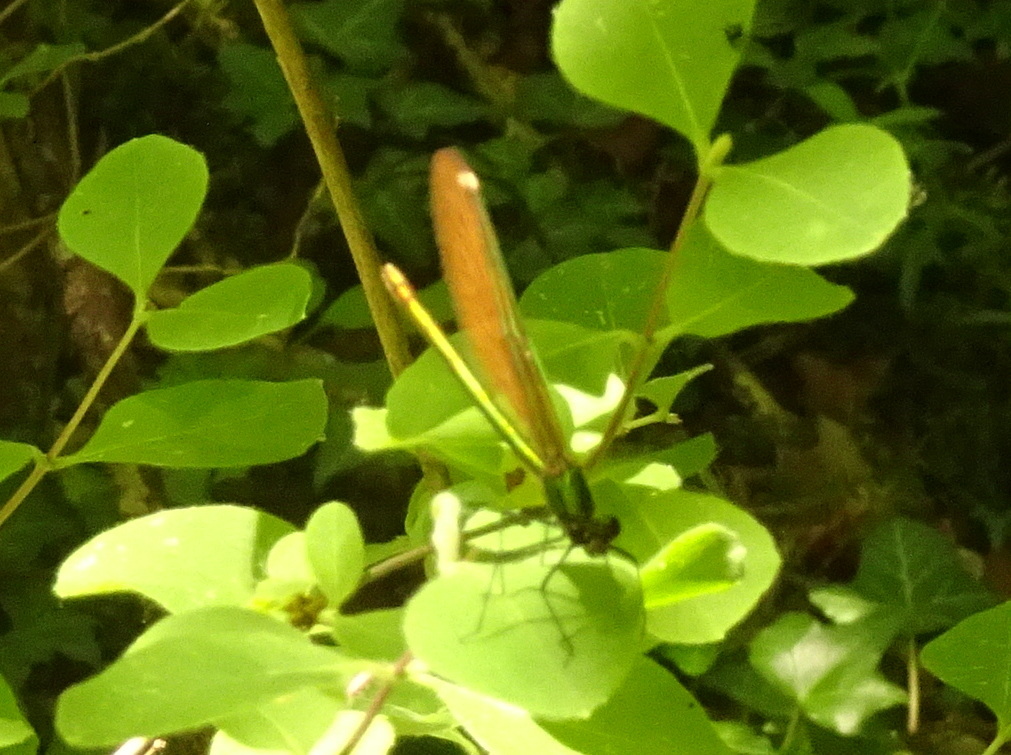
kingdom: Animalia
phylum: Arthropoda
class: Insecta
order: Odonata
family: Calopterygidae
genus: Calopteryx
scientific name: Calopteryx virgo
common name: Beautiful demoiselle
